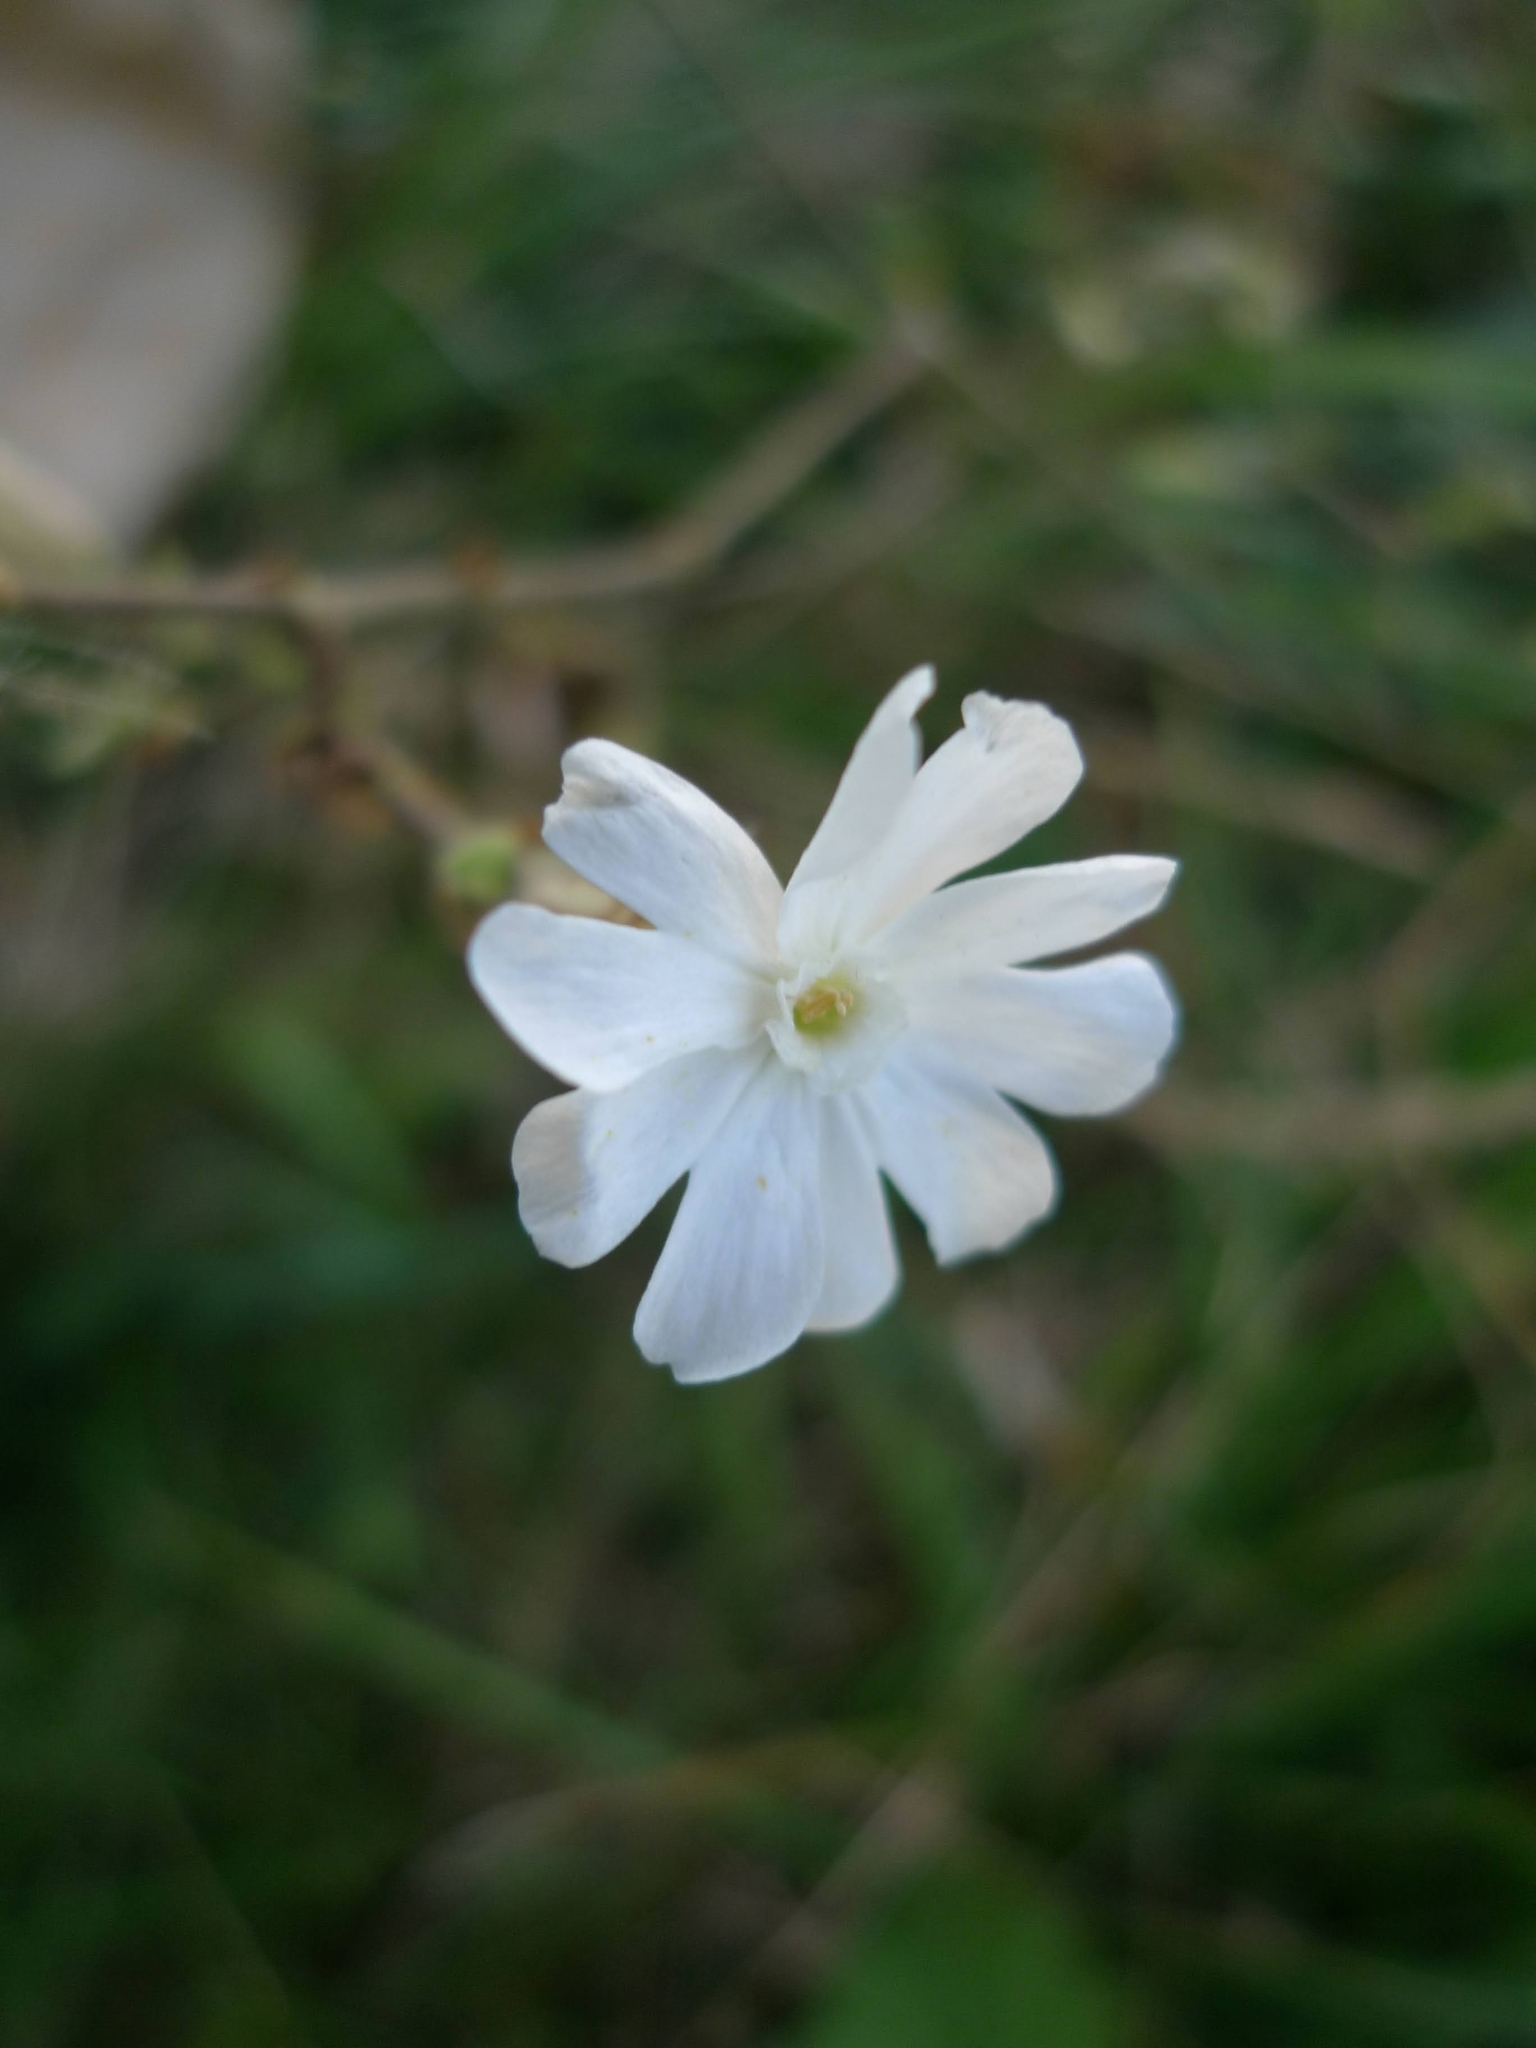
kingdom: Plantae
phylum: Tracheophyta
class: Magnoliopsida
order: Caryophyllales
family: Caryophyllaceae
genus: Silene
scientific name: Silene latifolia
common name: White campion
